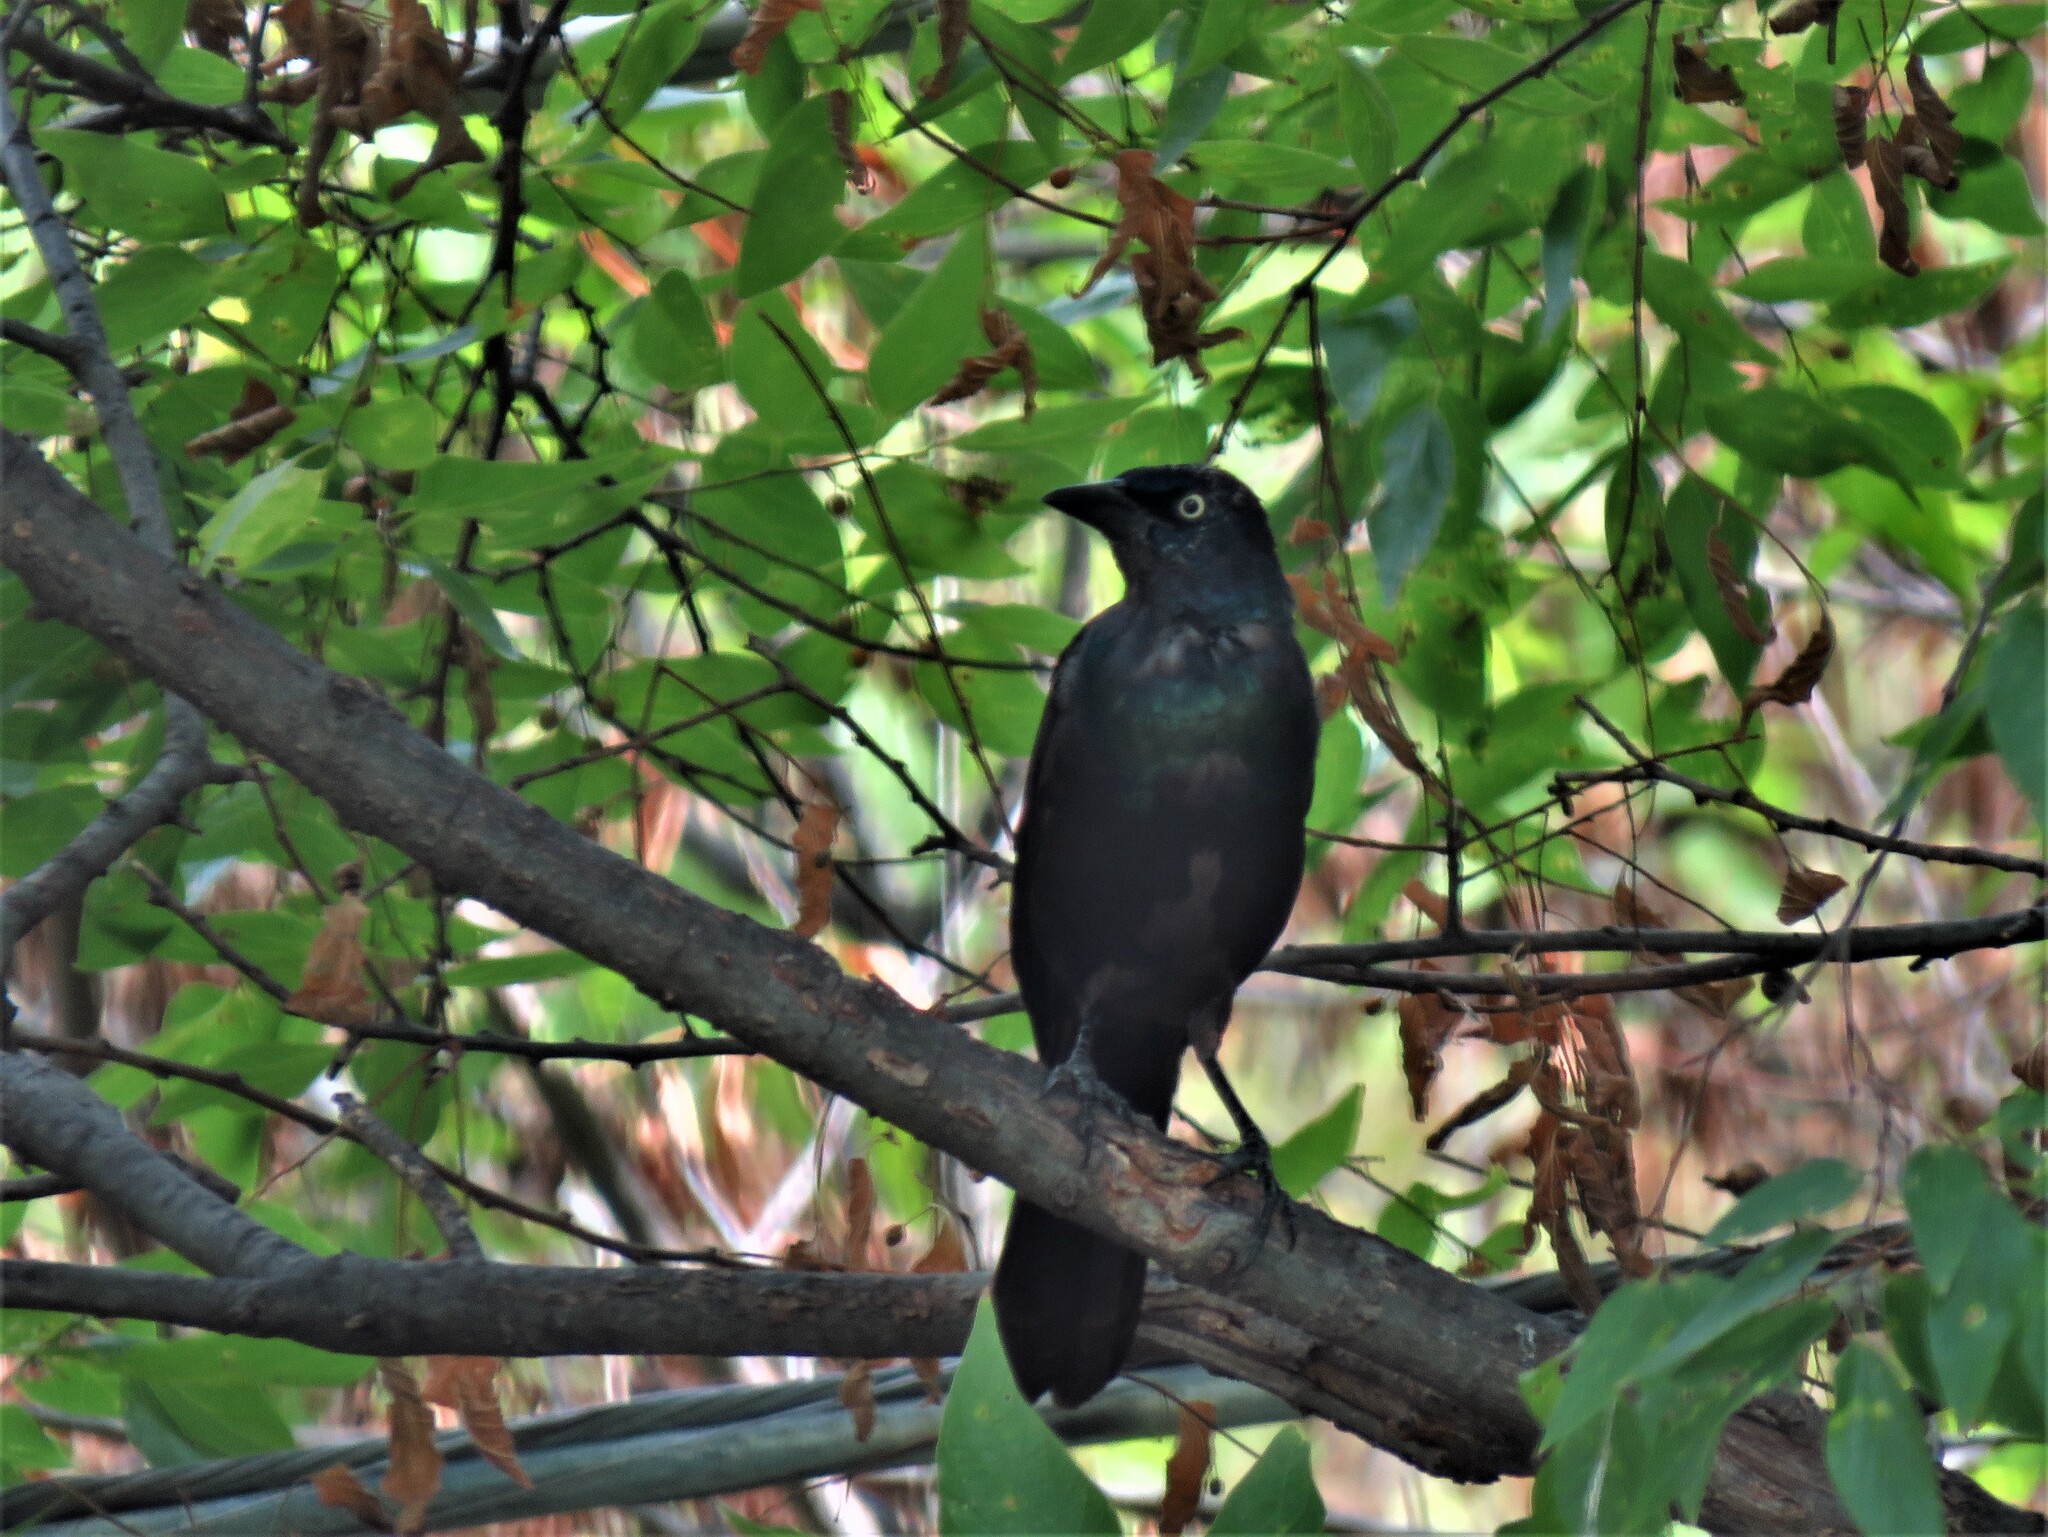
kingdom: Animalia
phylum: Chordata
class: Aves
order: Passeriformes
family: Icteridae
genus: Quiscalus
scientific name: Quiscalus quiscula
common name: Common grackle
